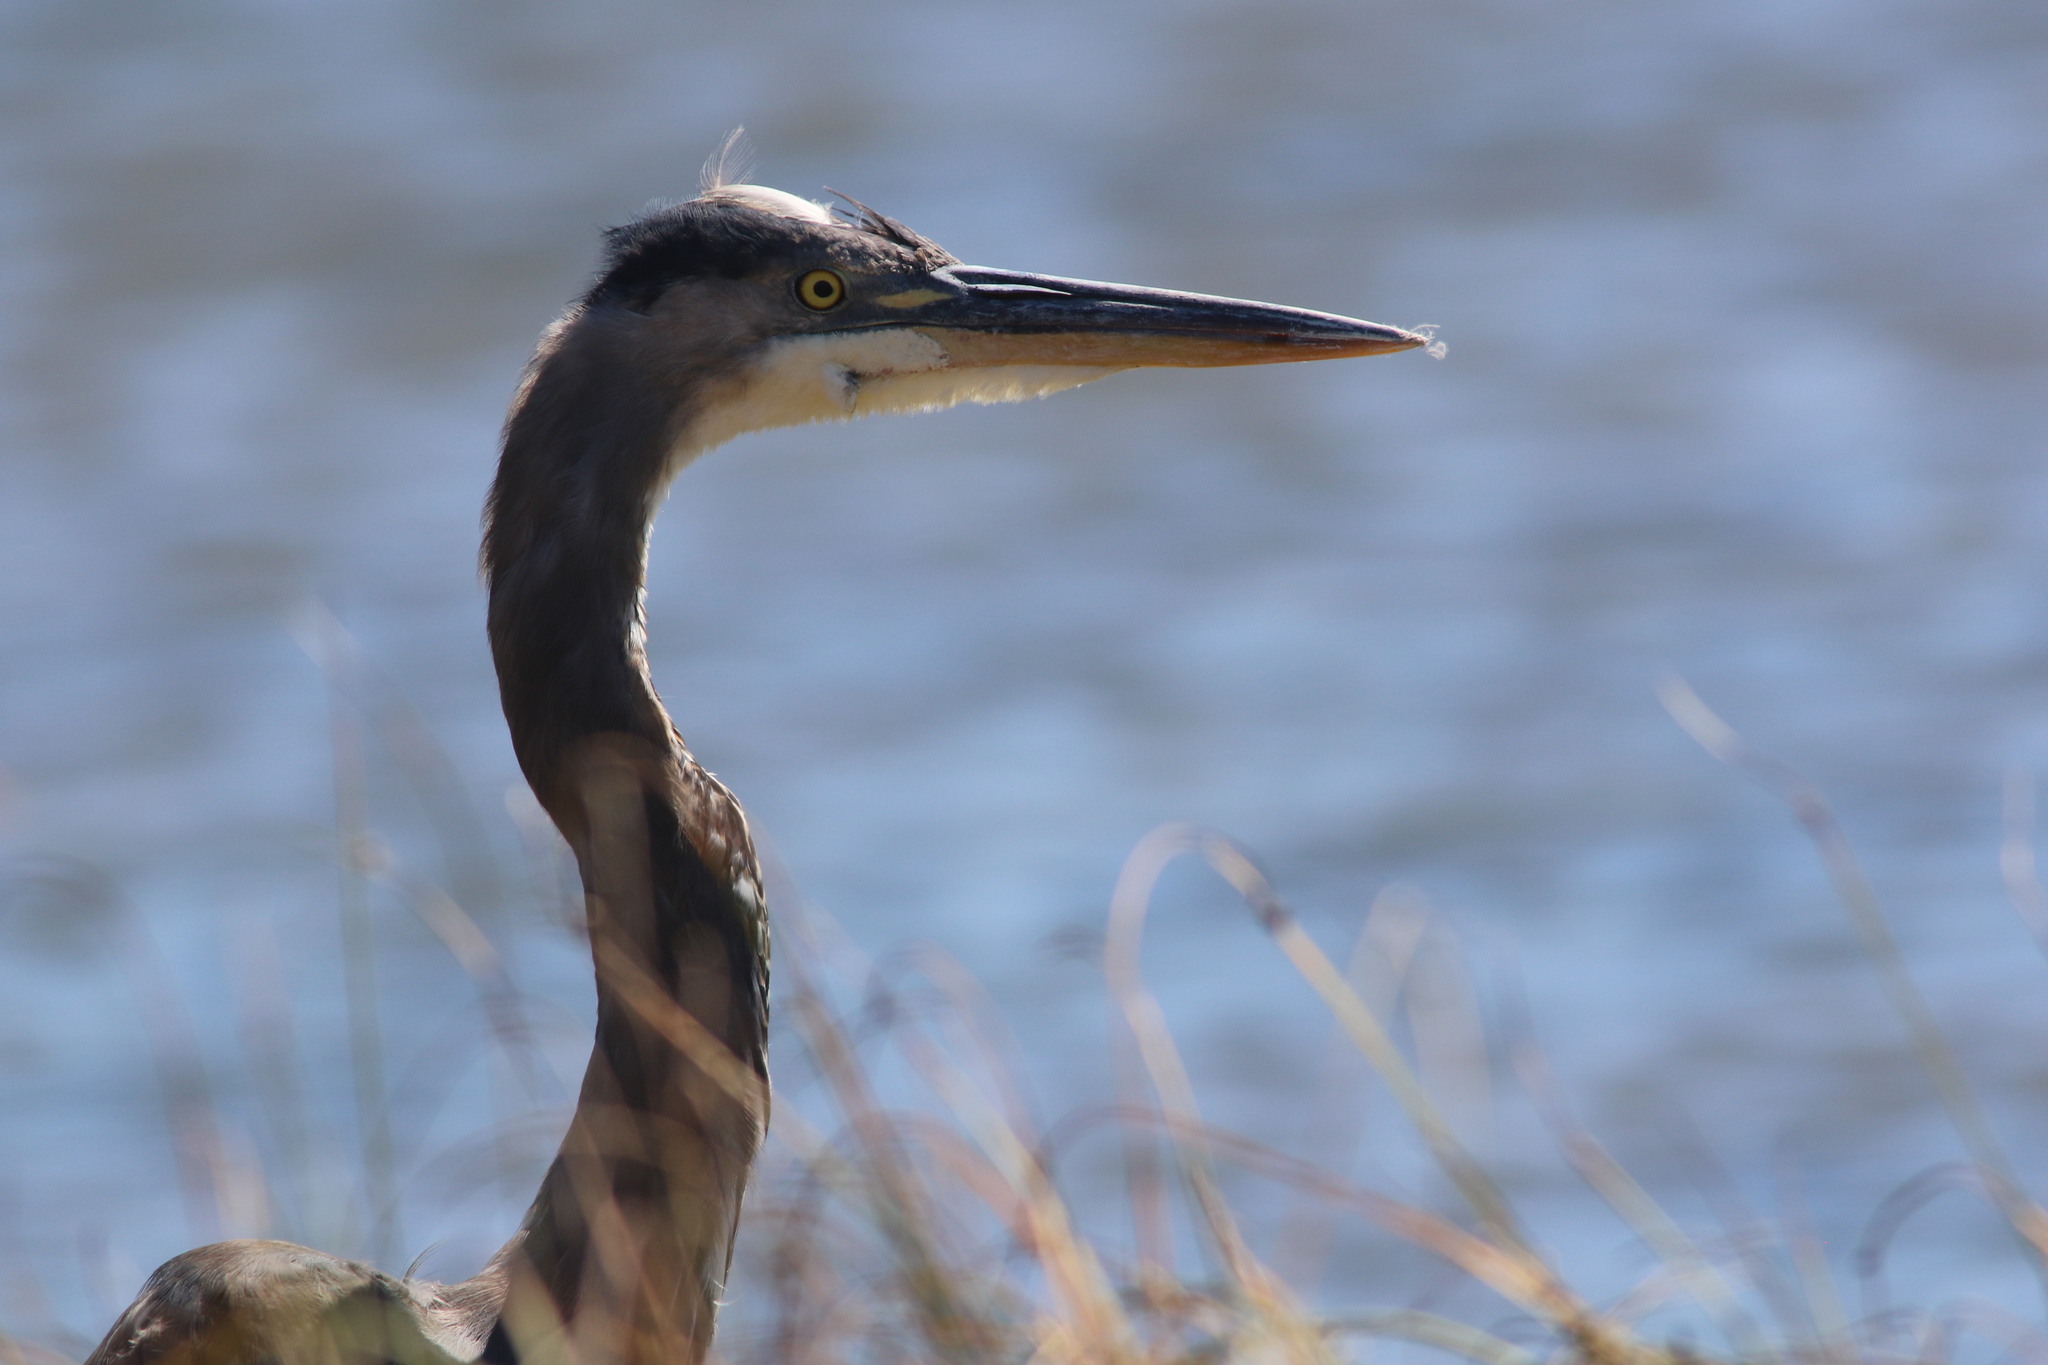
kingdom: Animalia
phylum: Chordata
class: Aves
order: Pelecaniformes
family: Ardeidae
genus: Ardea
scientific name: Ardea herodias
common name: Great blue heron
